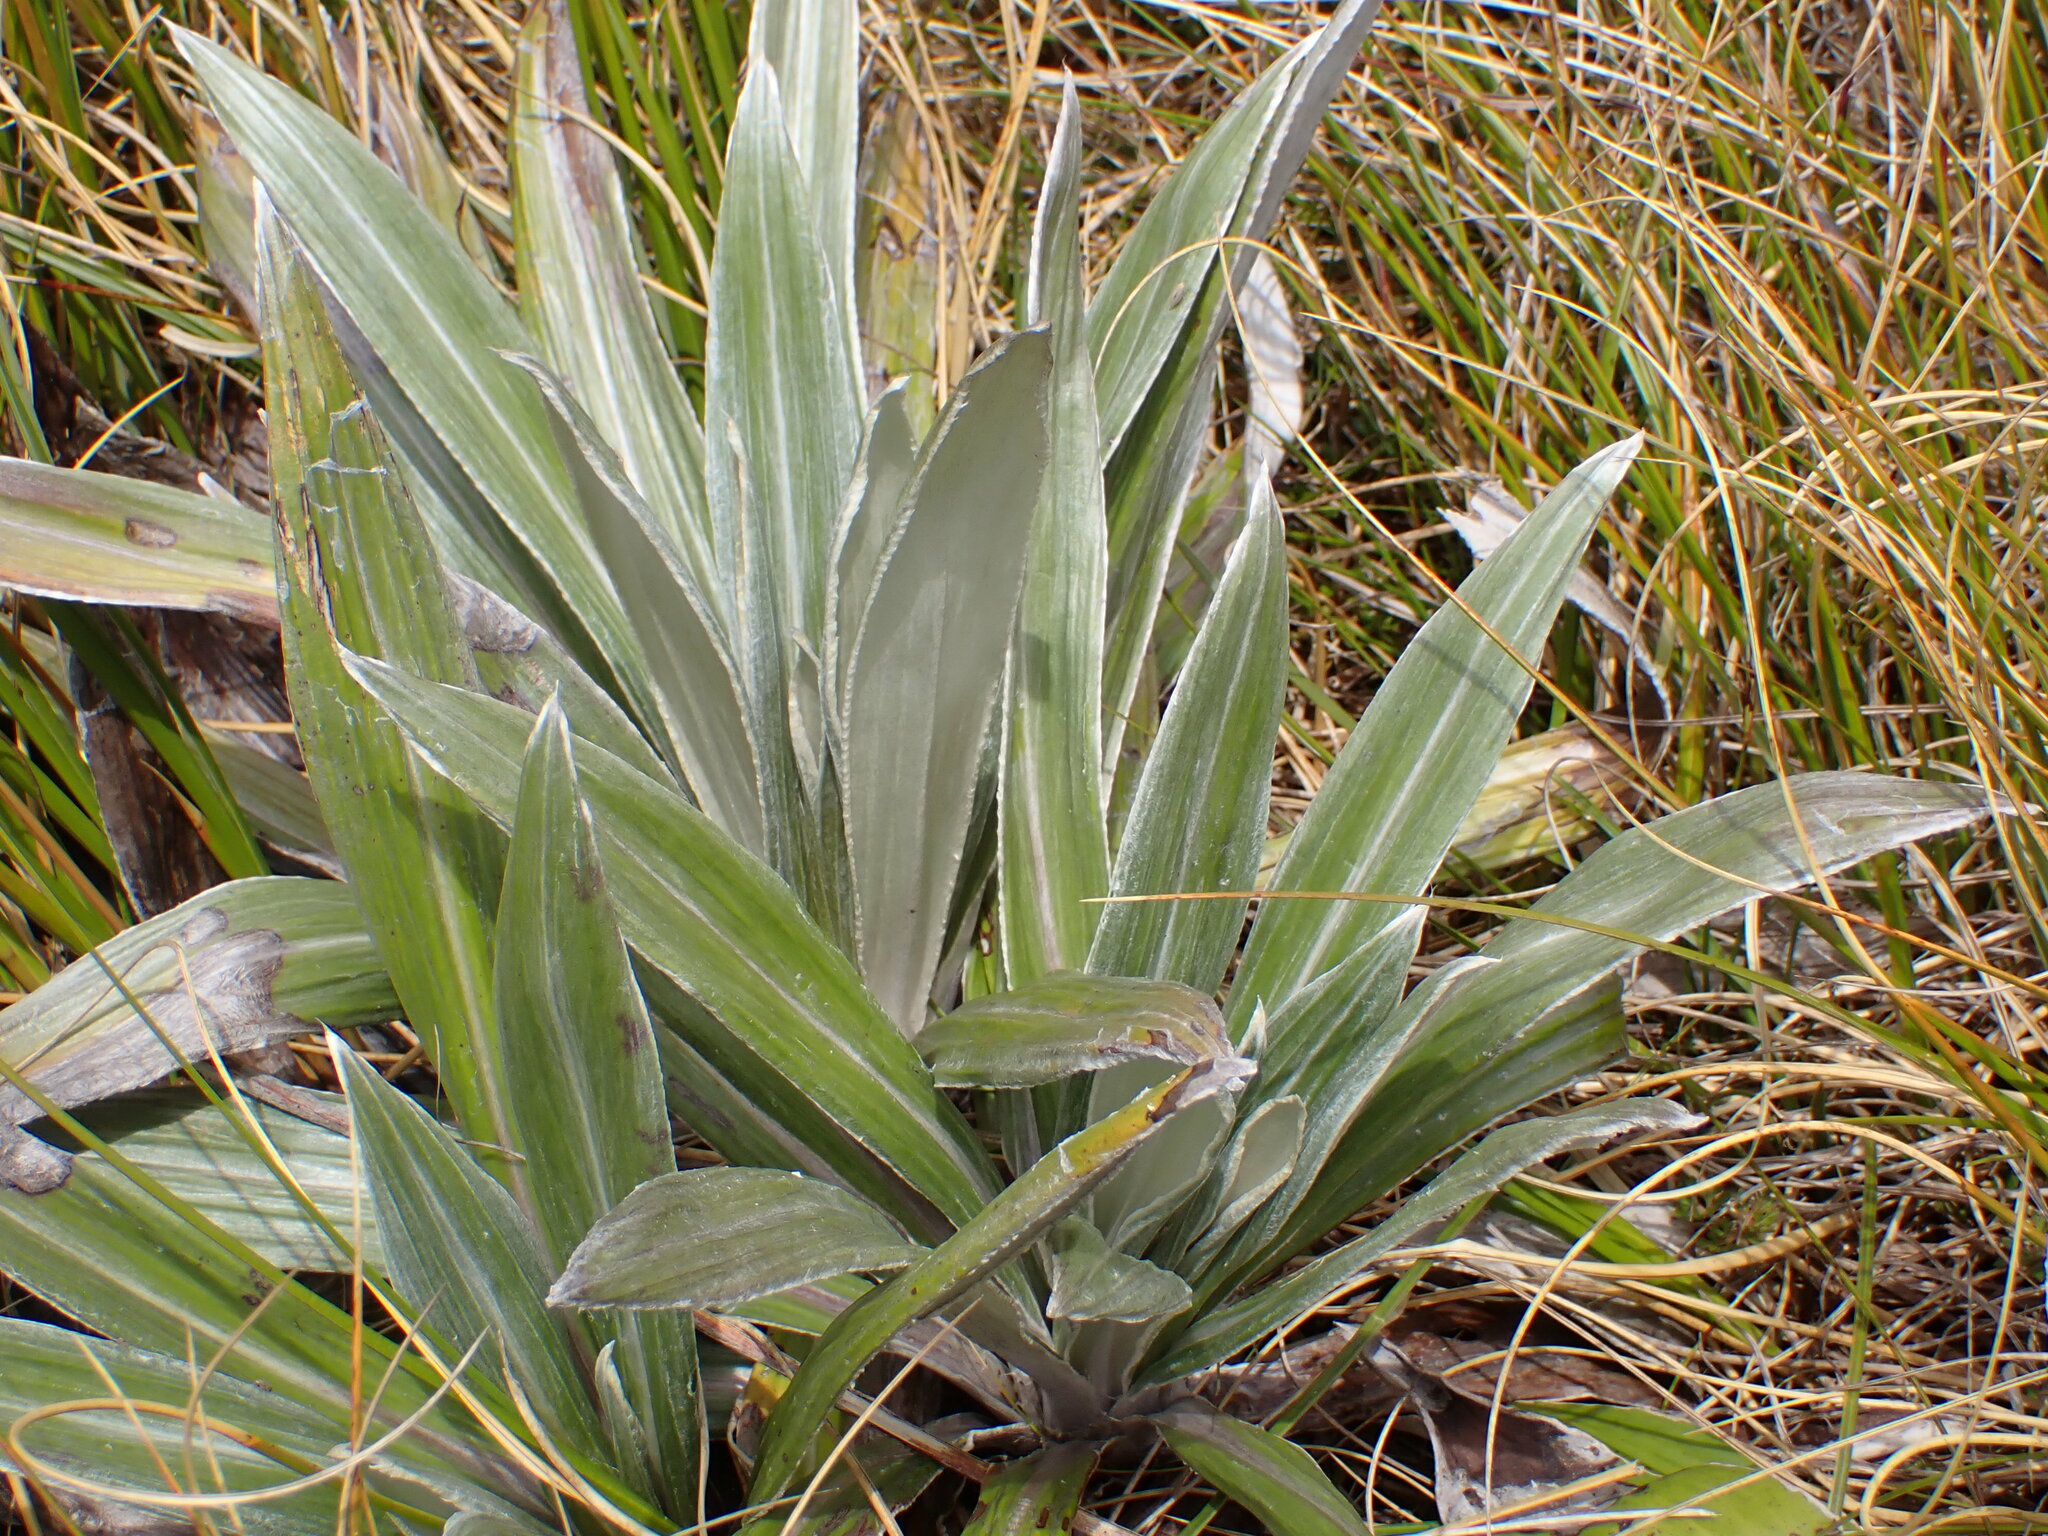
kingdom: Plantae
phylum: Tracheophyta
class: Magnoliopsida
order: Asterales
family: Asteraceae
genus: Celmisia
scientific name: Celmisia semicordata
